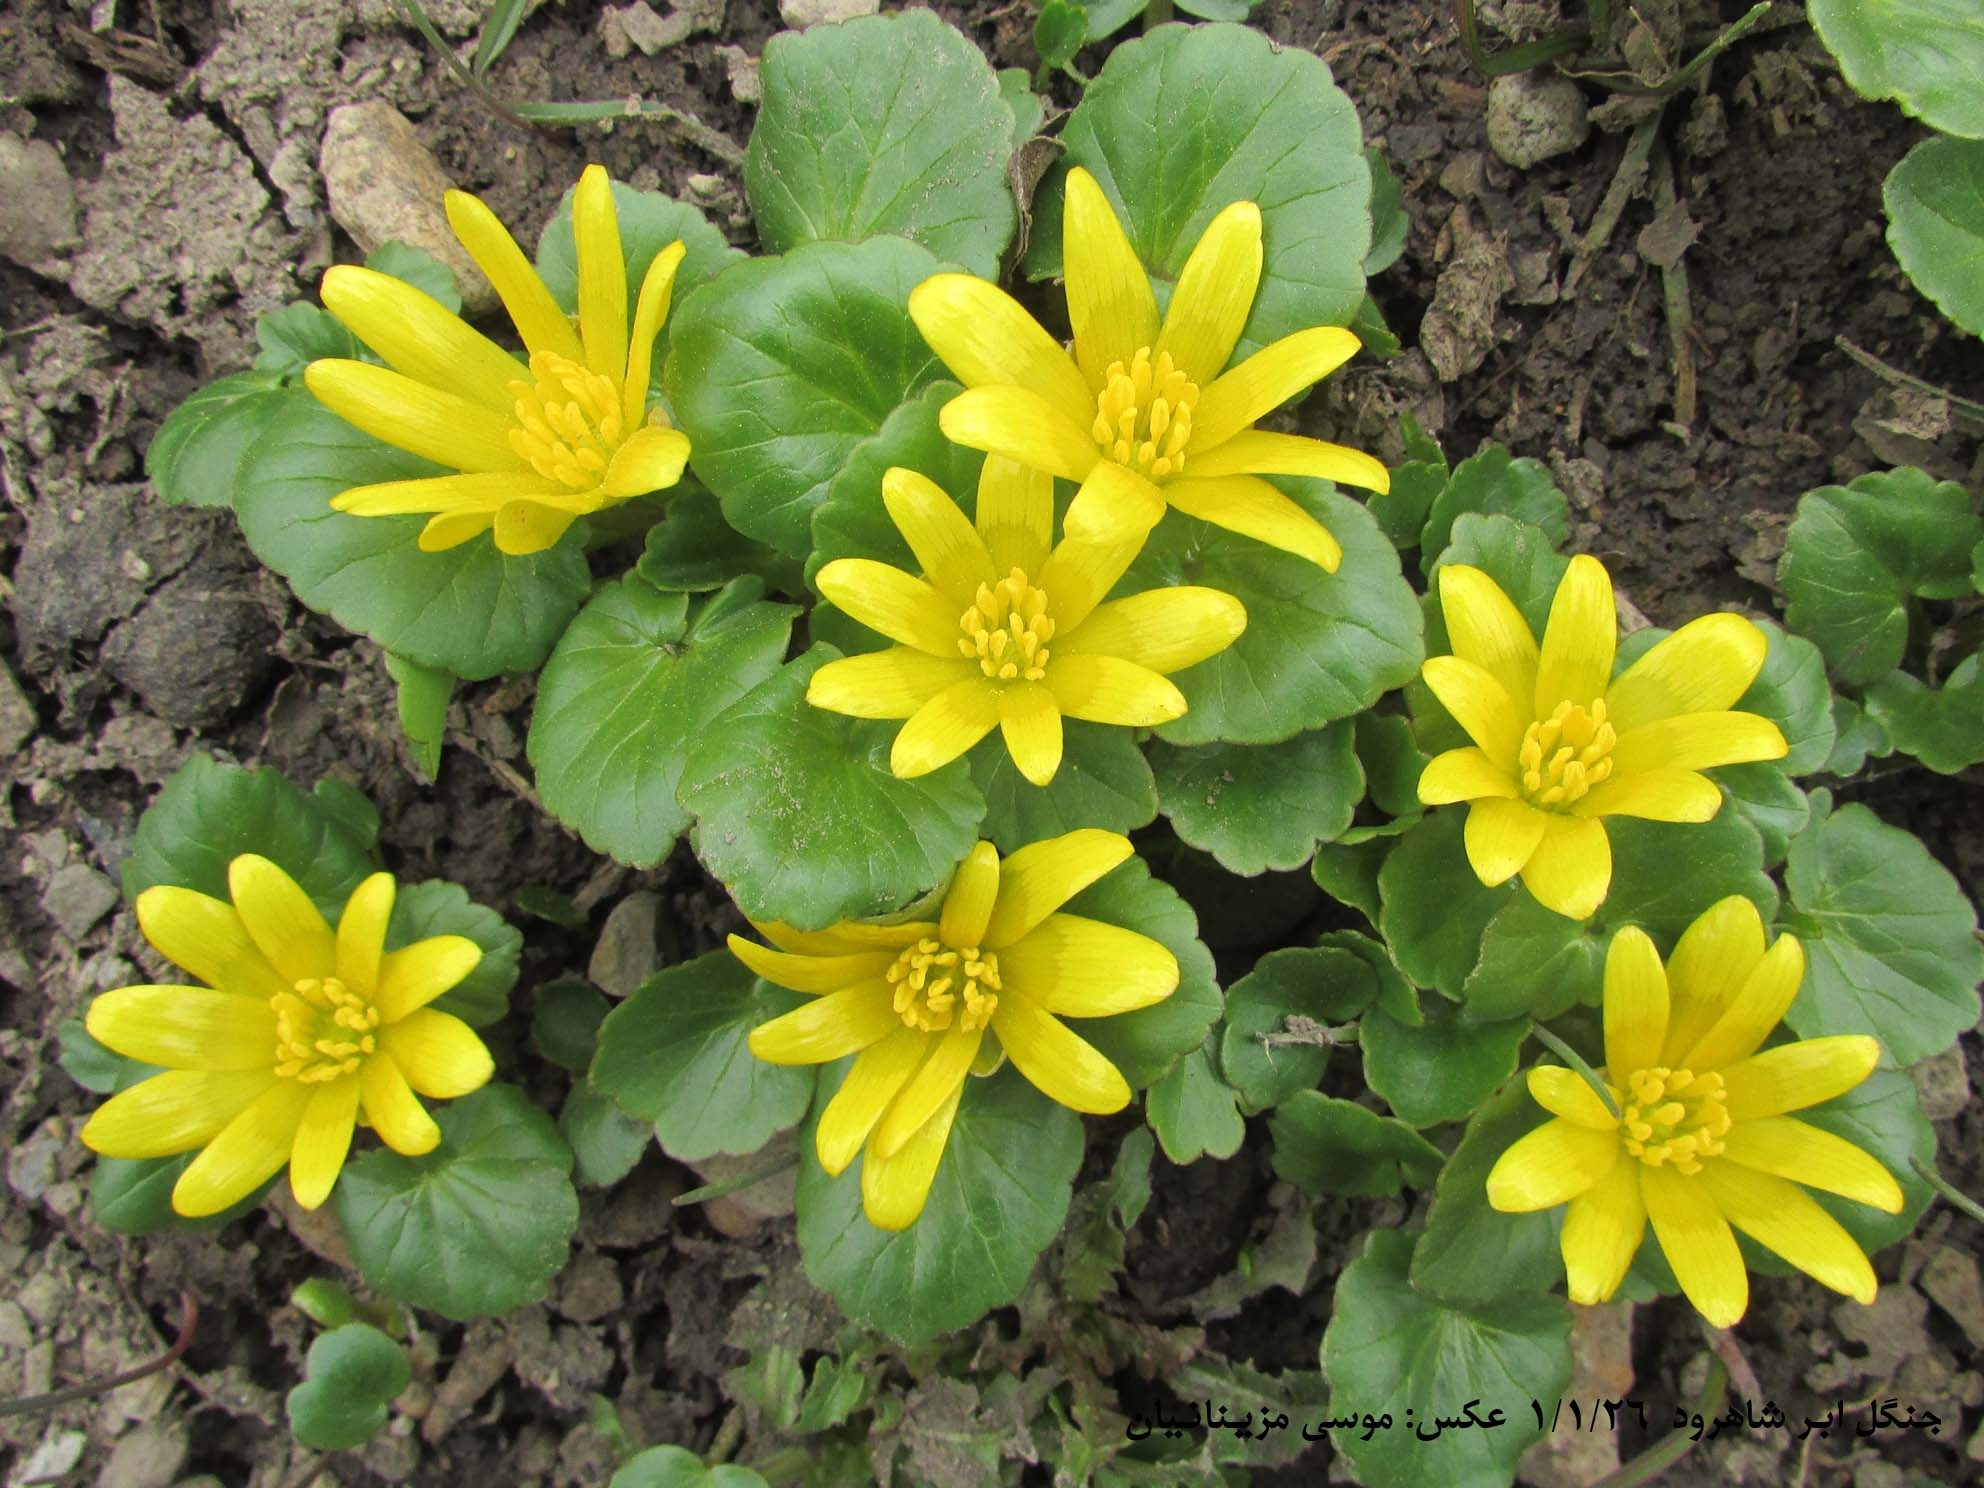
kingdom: Plantae
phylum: Tracheophyta
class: Magnoliopsida
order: Ranunculales
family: Ranunculaceae
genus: Ficaria
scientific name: Ficaria kochii
